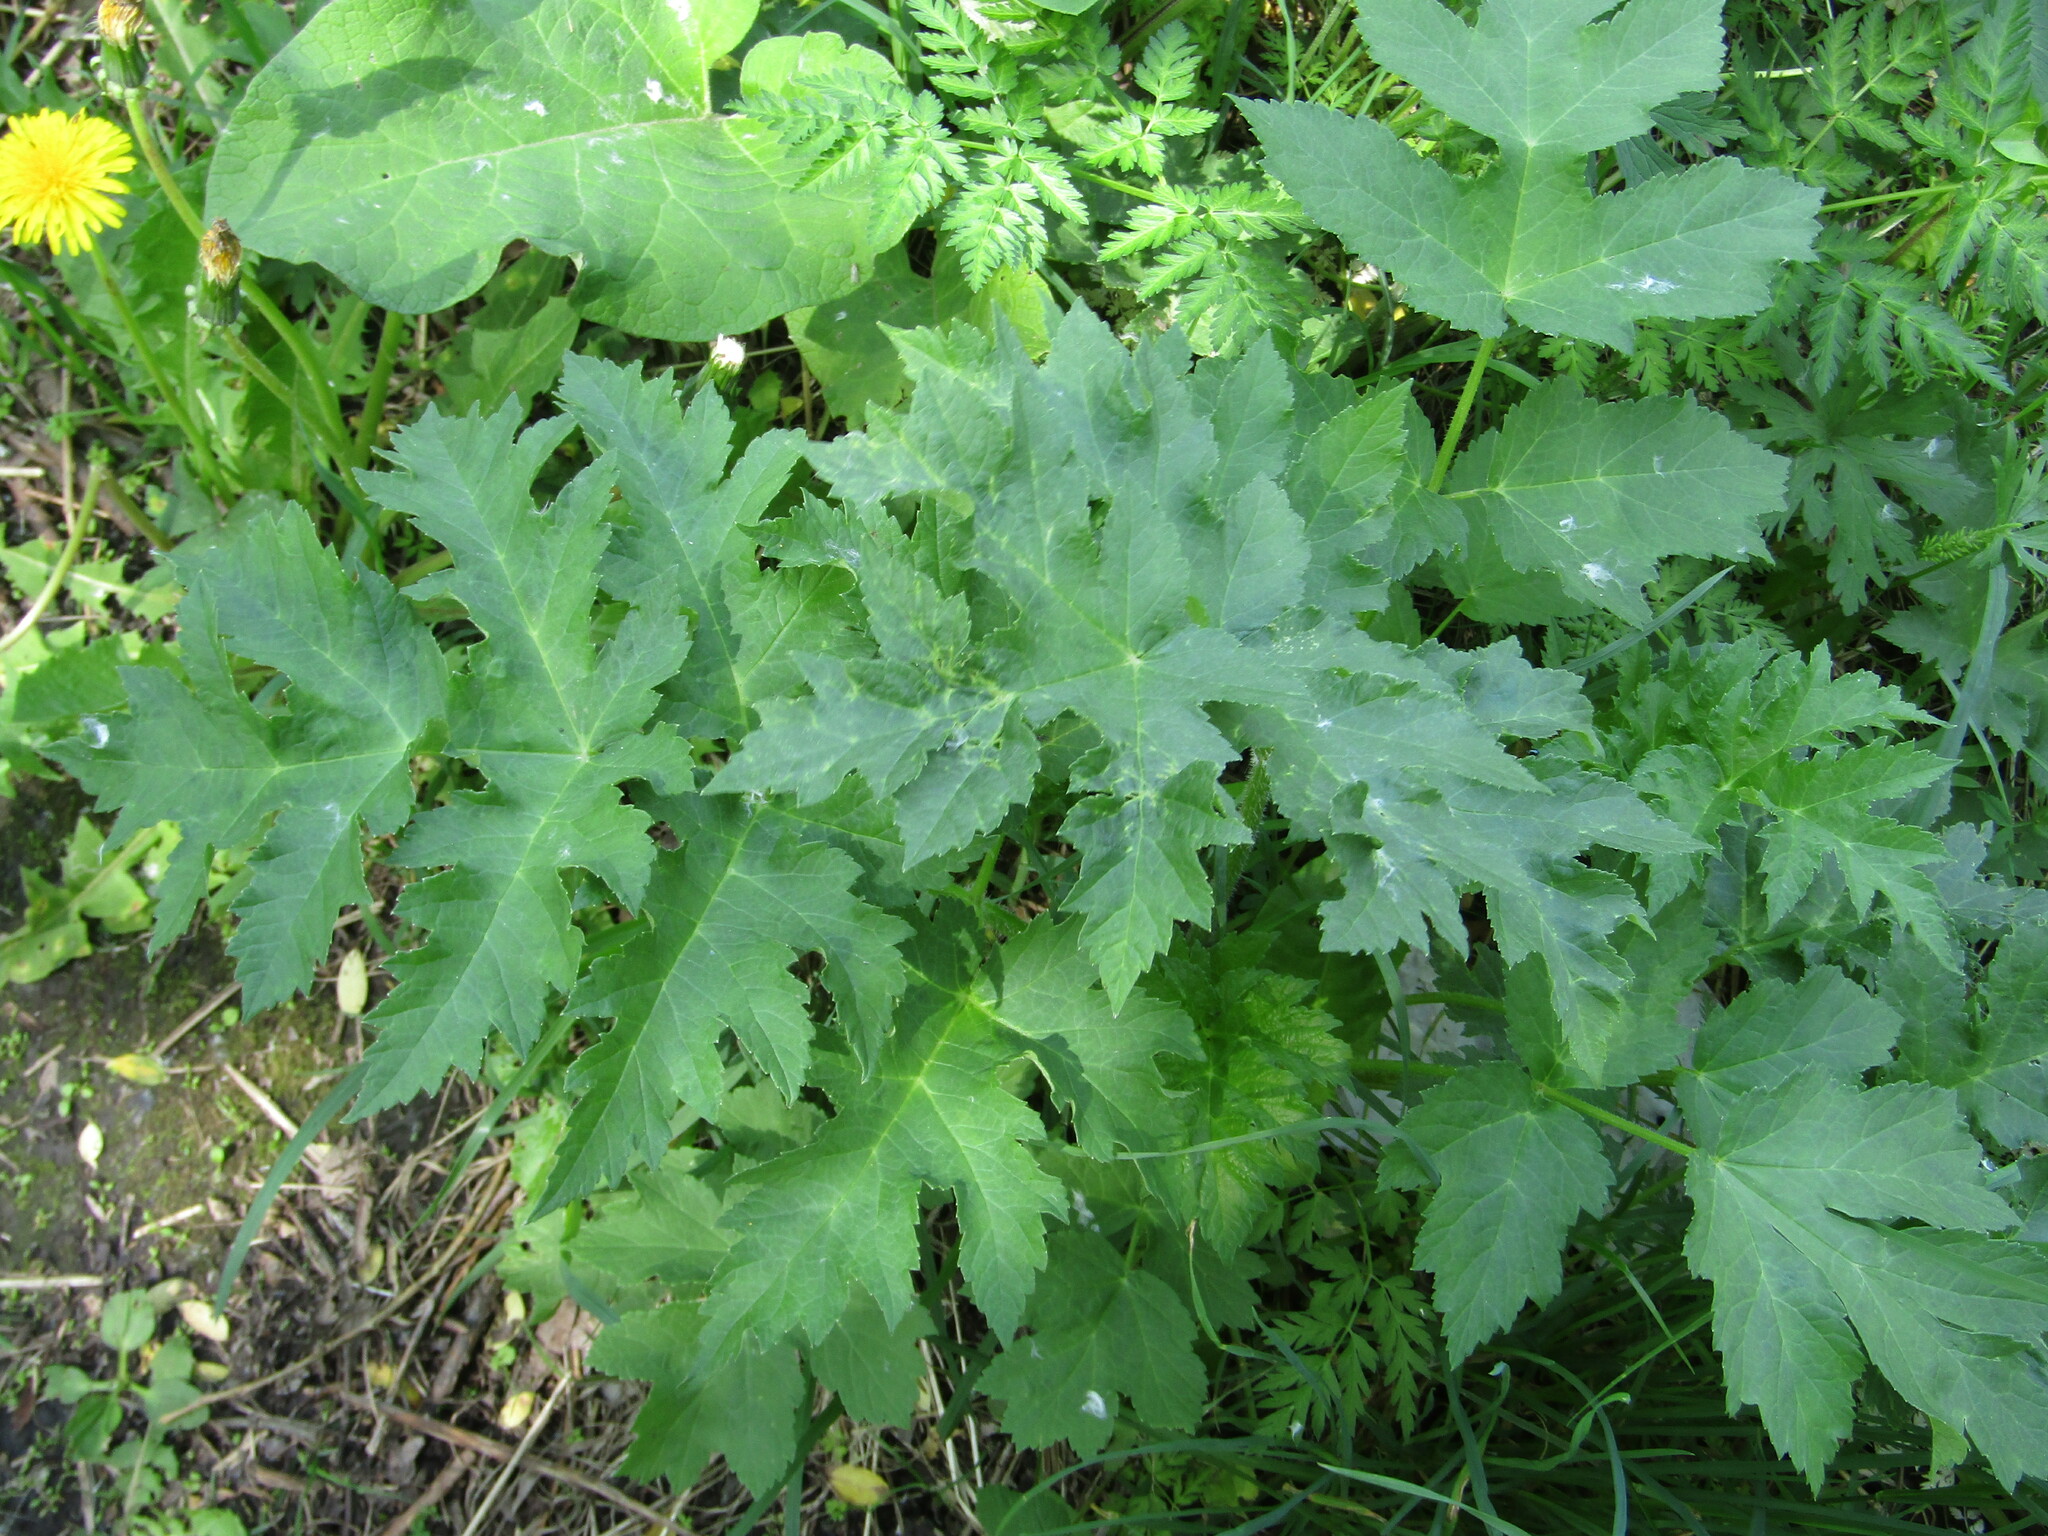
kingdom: Plantae
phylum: Tracheophyta
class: Magnoliopsida
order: Apiales
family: Apiaceae
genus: Heracleum
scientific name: Heracleum sphondylium
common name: Hogweed
